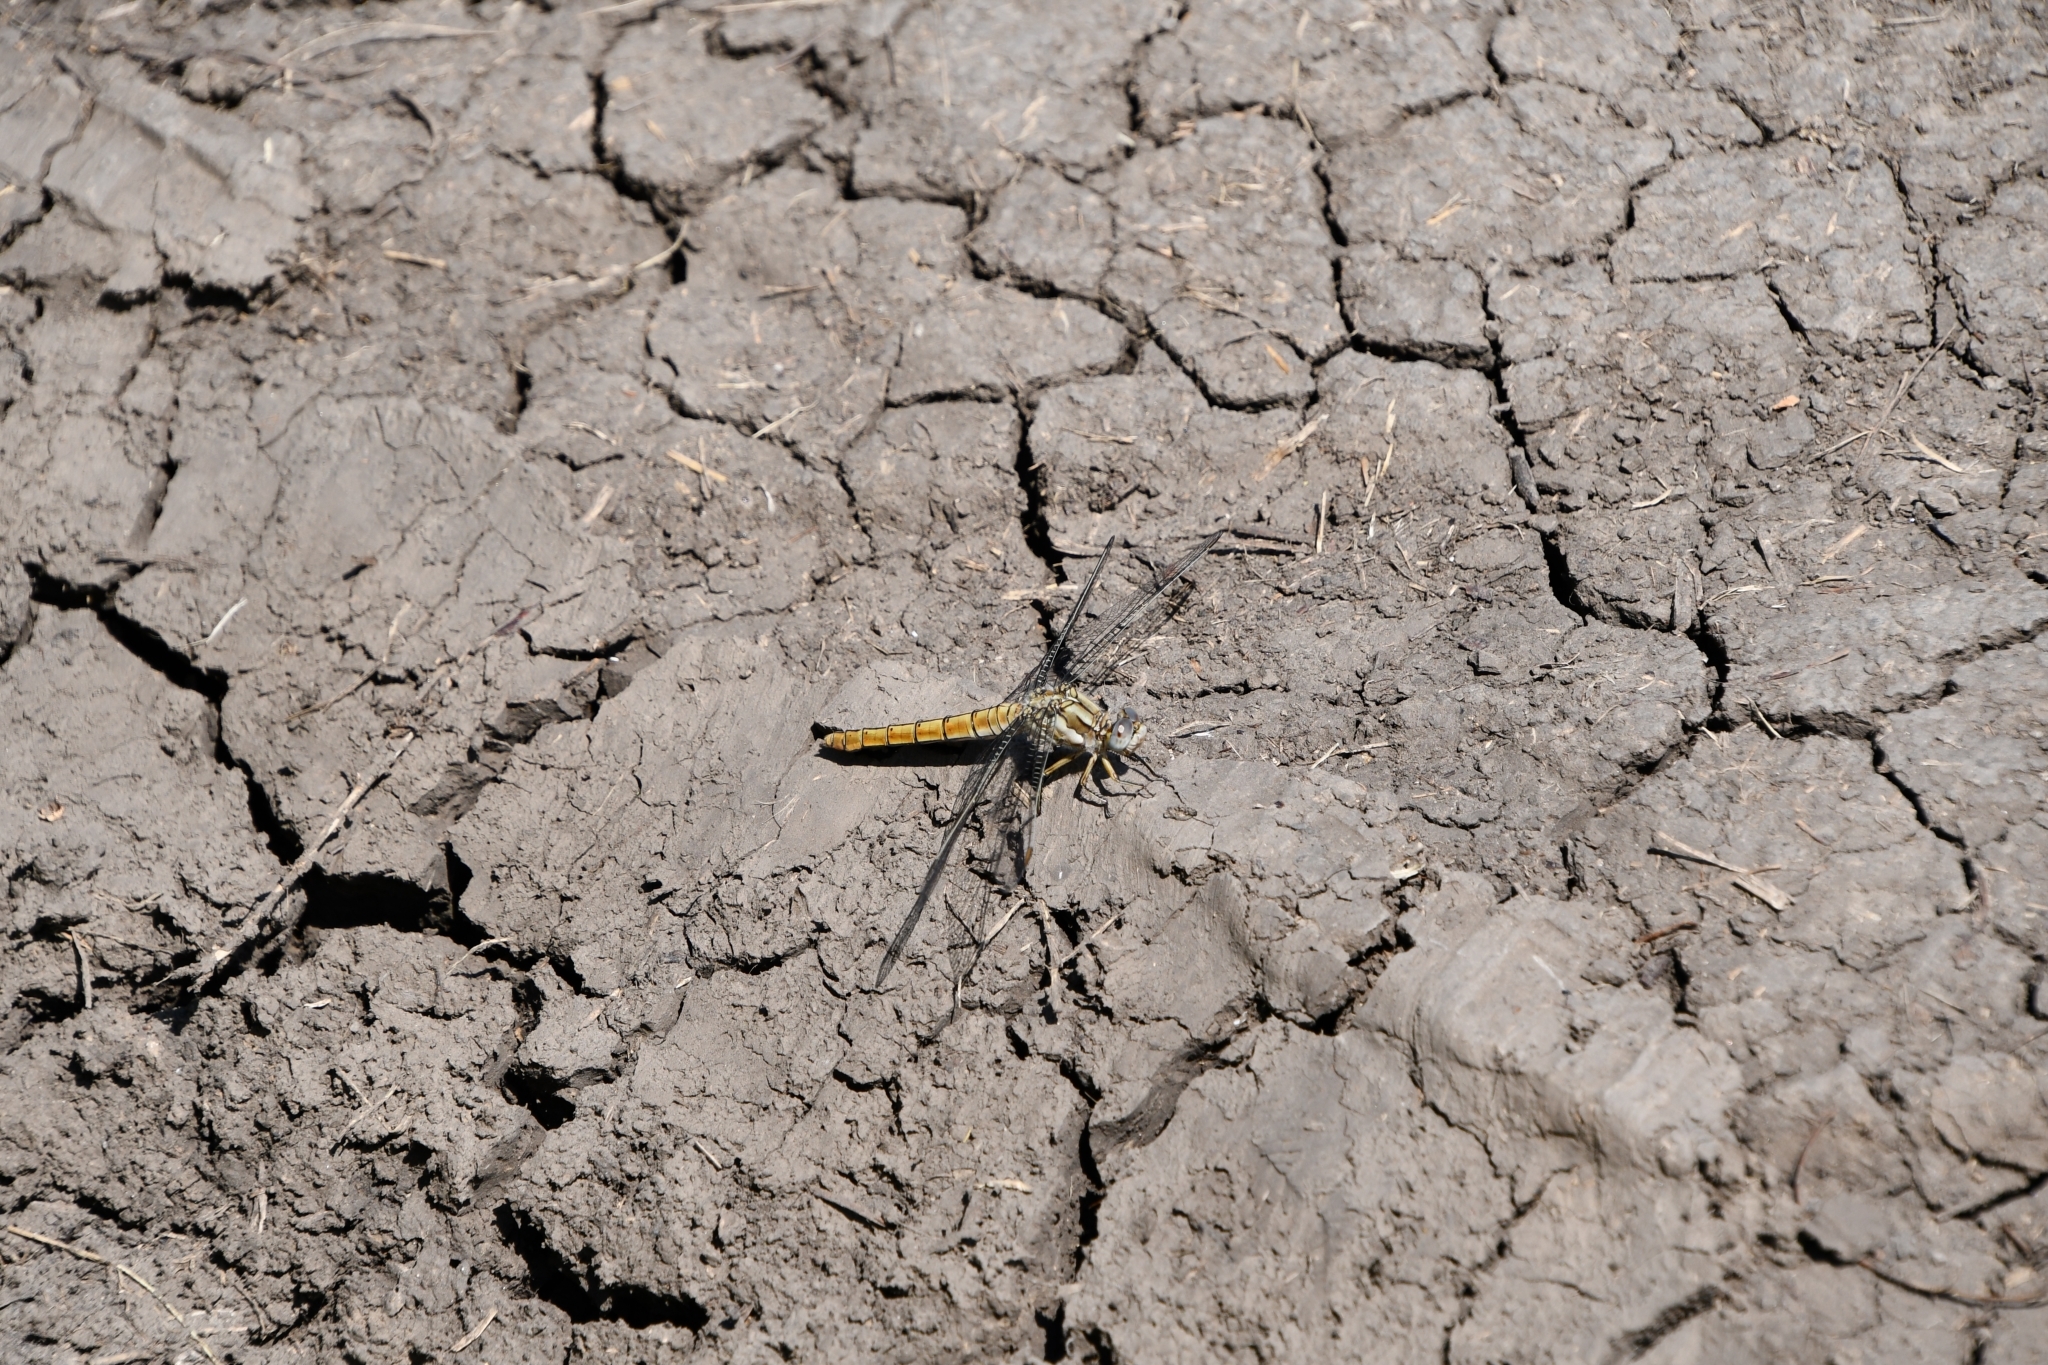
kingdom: Animalia
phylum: Arthropoda
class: Insecta
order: Odonata
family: Libellulidae
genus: Orthetrum
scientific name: Orthetrum brunneum
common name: Southern skimmer
